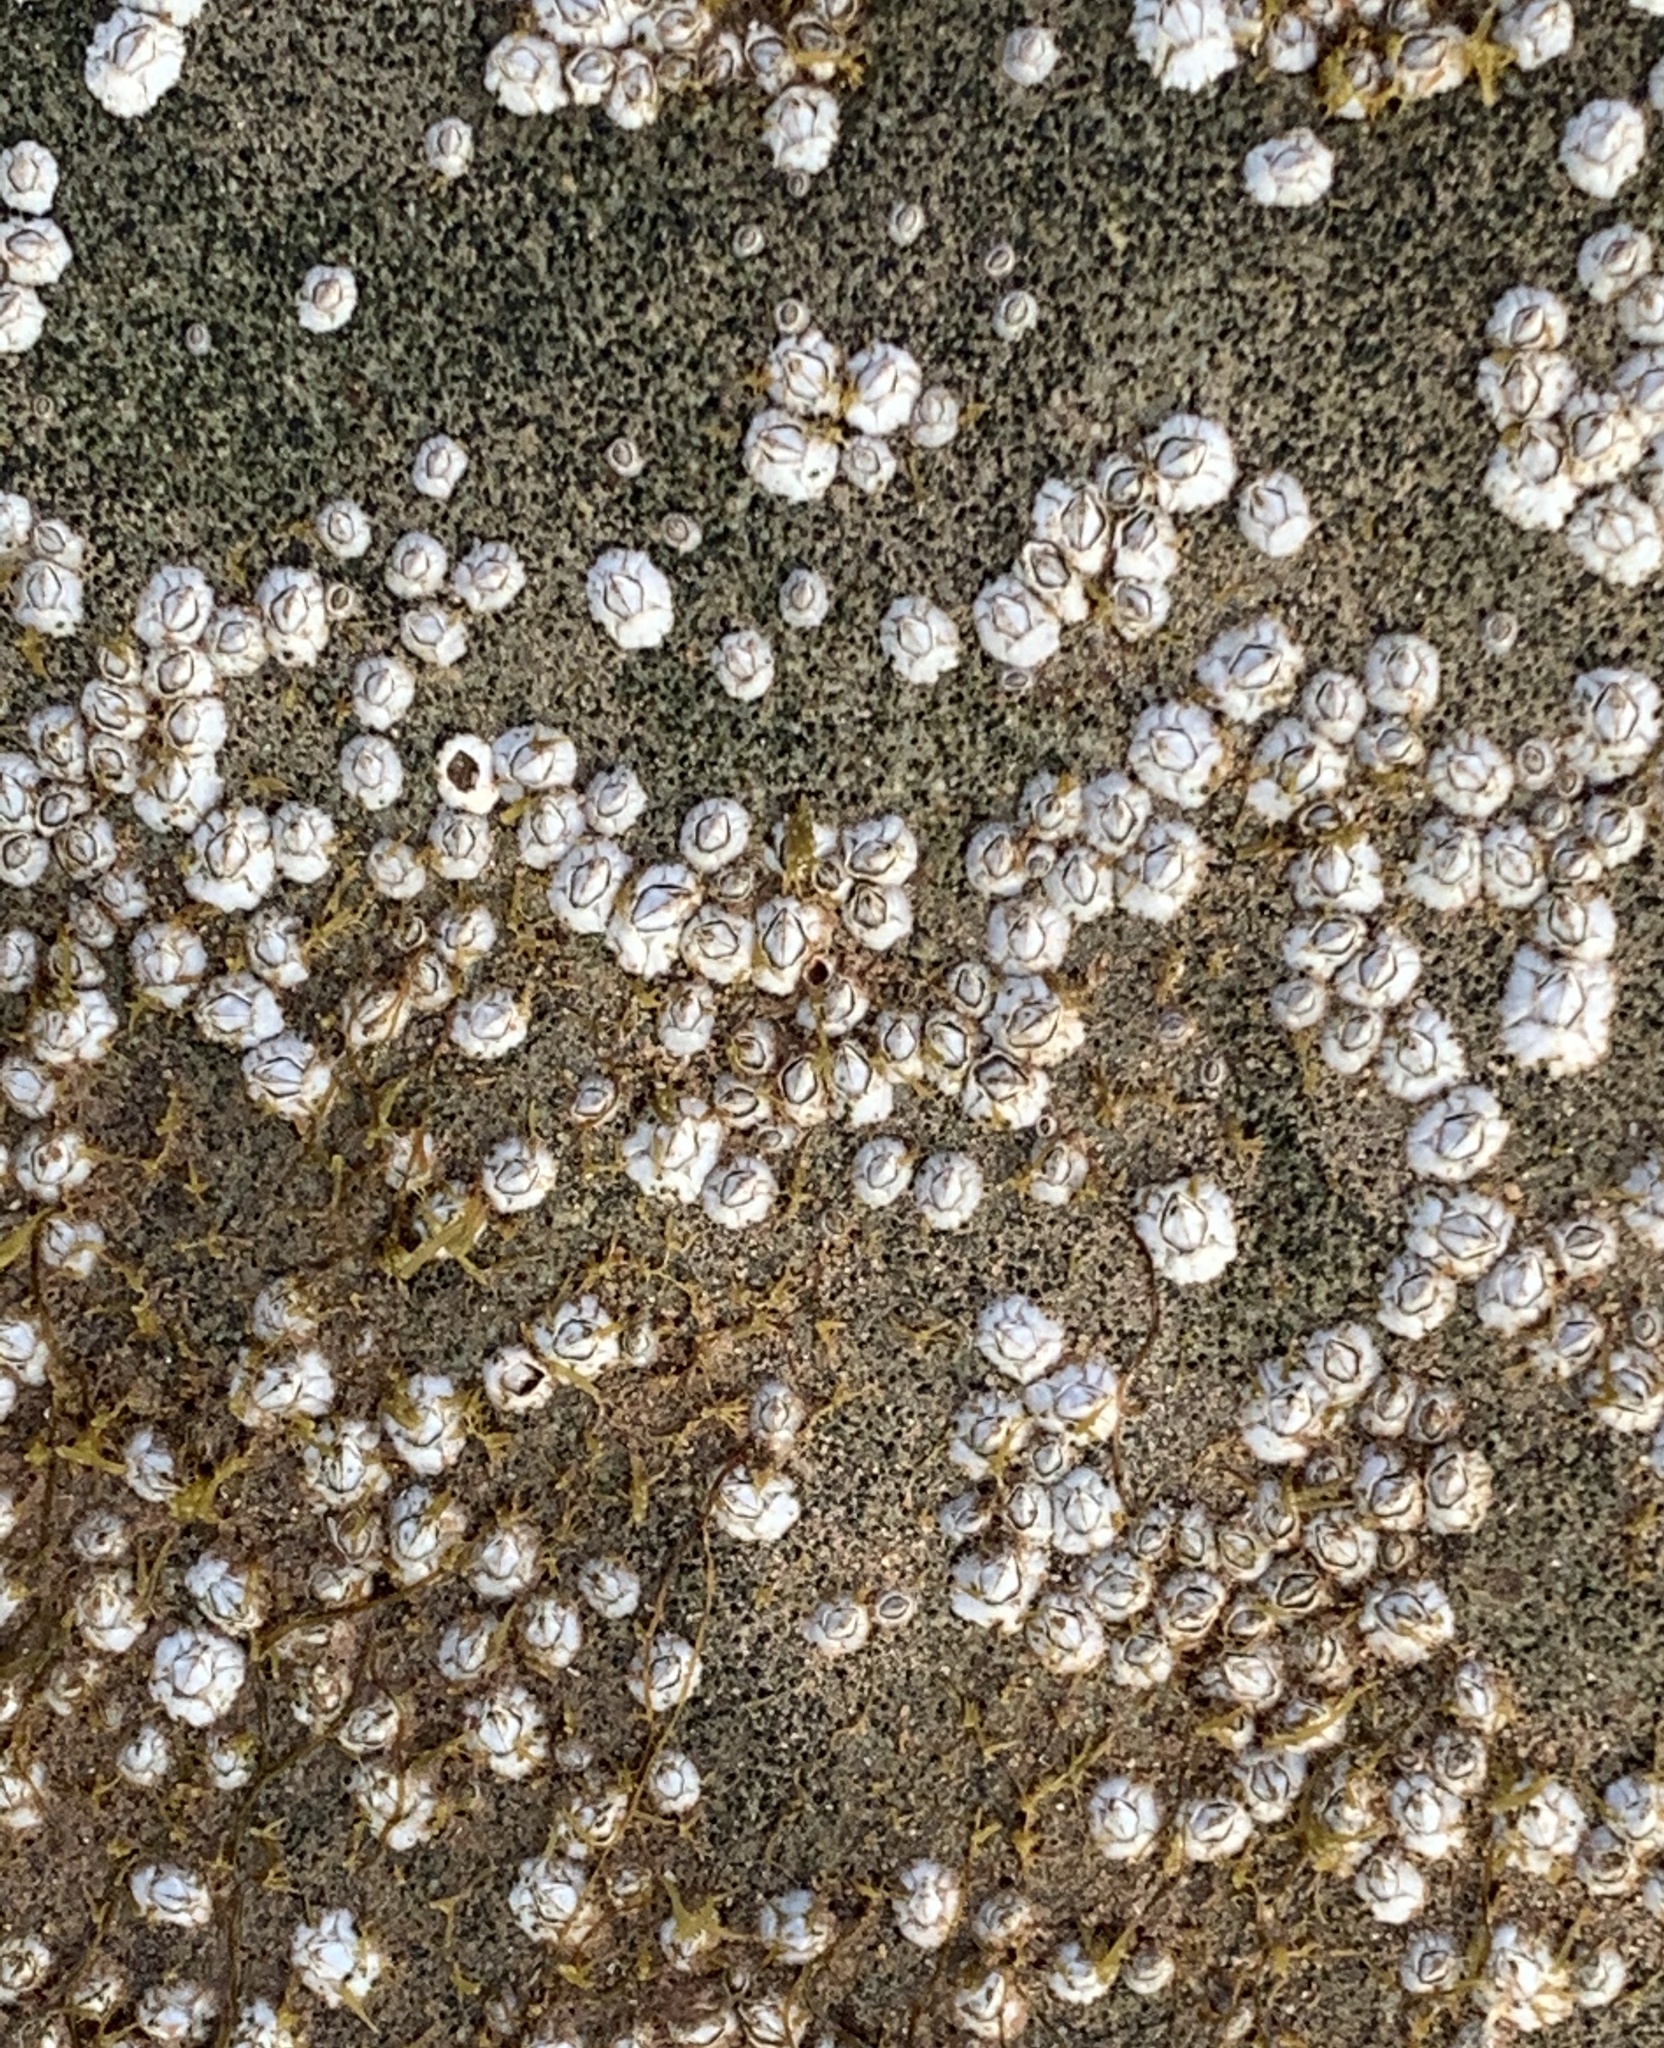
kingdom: Animalia
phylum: Arthropoda
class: Maxillopoda
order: Sessilia
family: Archaeobalanidae
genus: Semibalanus
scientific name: Semibalanus balanoides
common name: Acorn barnacle
